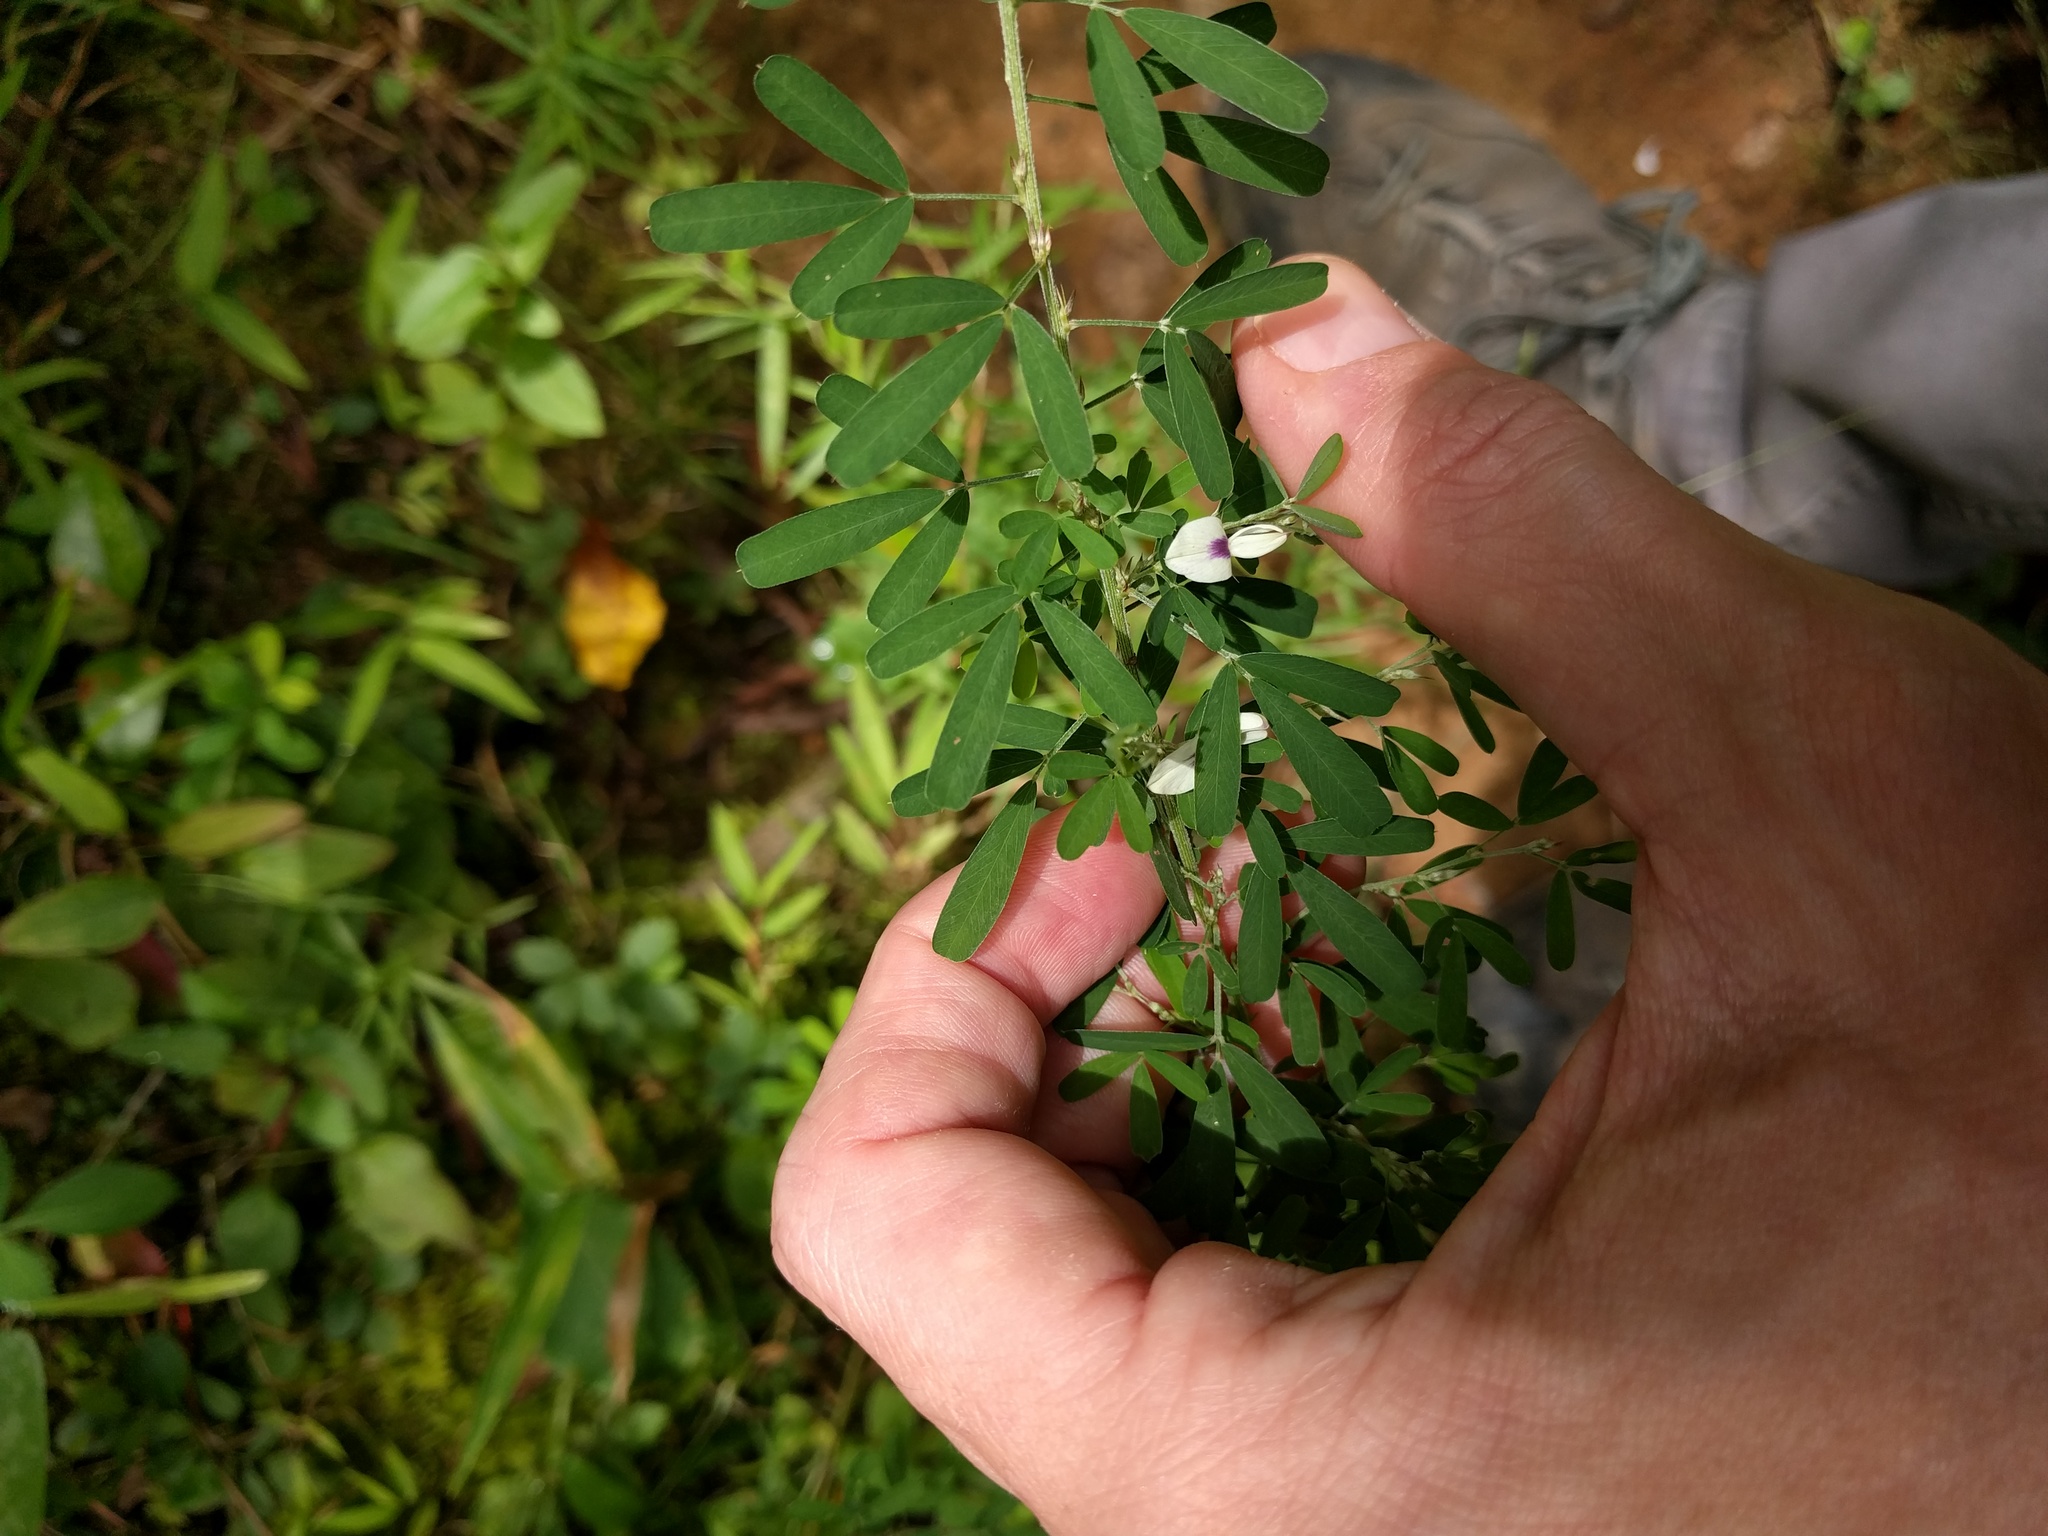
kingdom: Plantae
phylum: Tracheophyta
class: Magnoliopsida
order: Fabales
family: Fabaceae
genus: Lespedeza
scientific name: Lespedeza cuneata
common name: Chinese bush-clover
